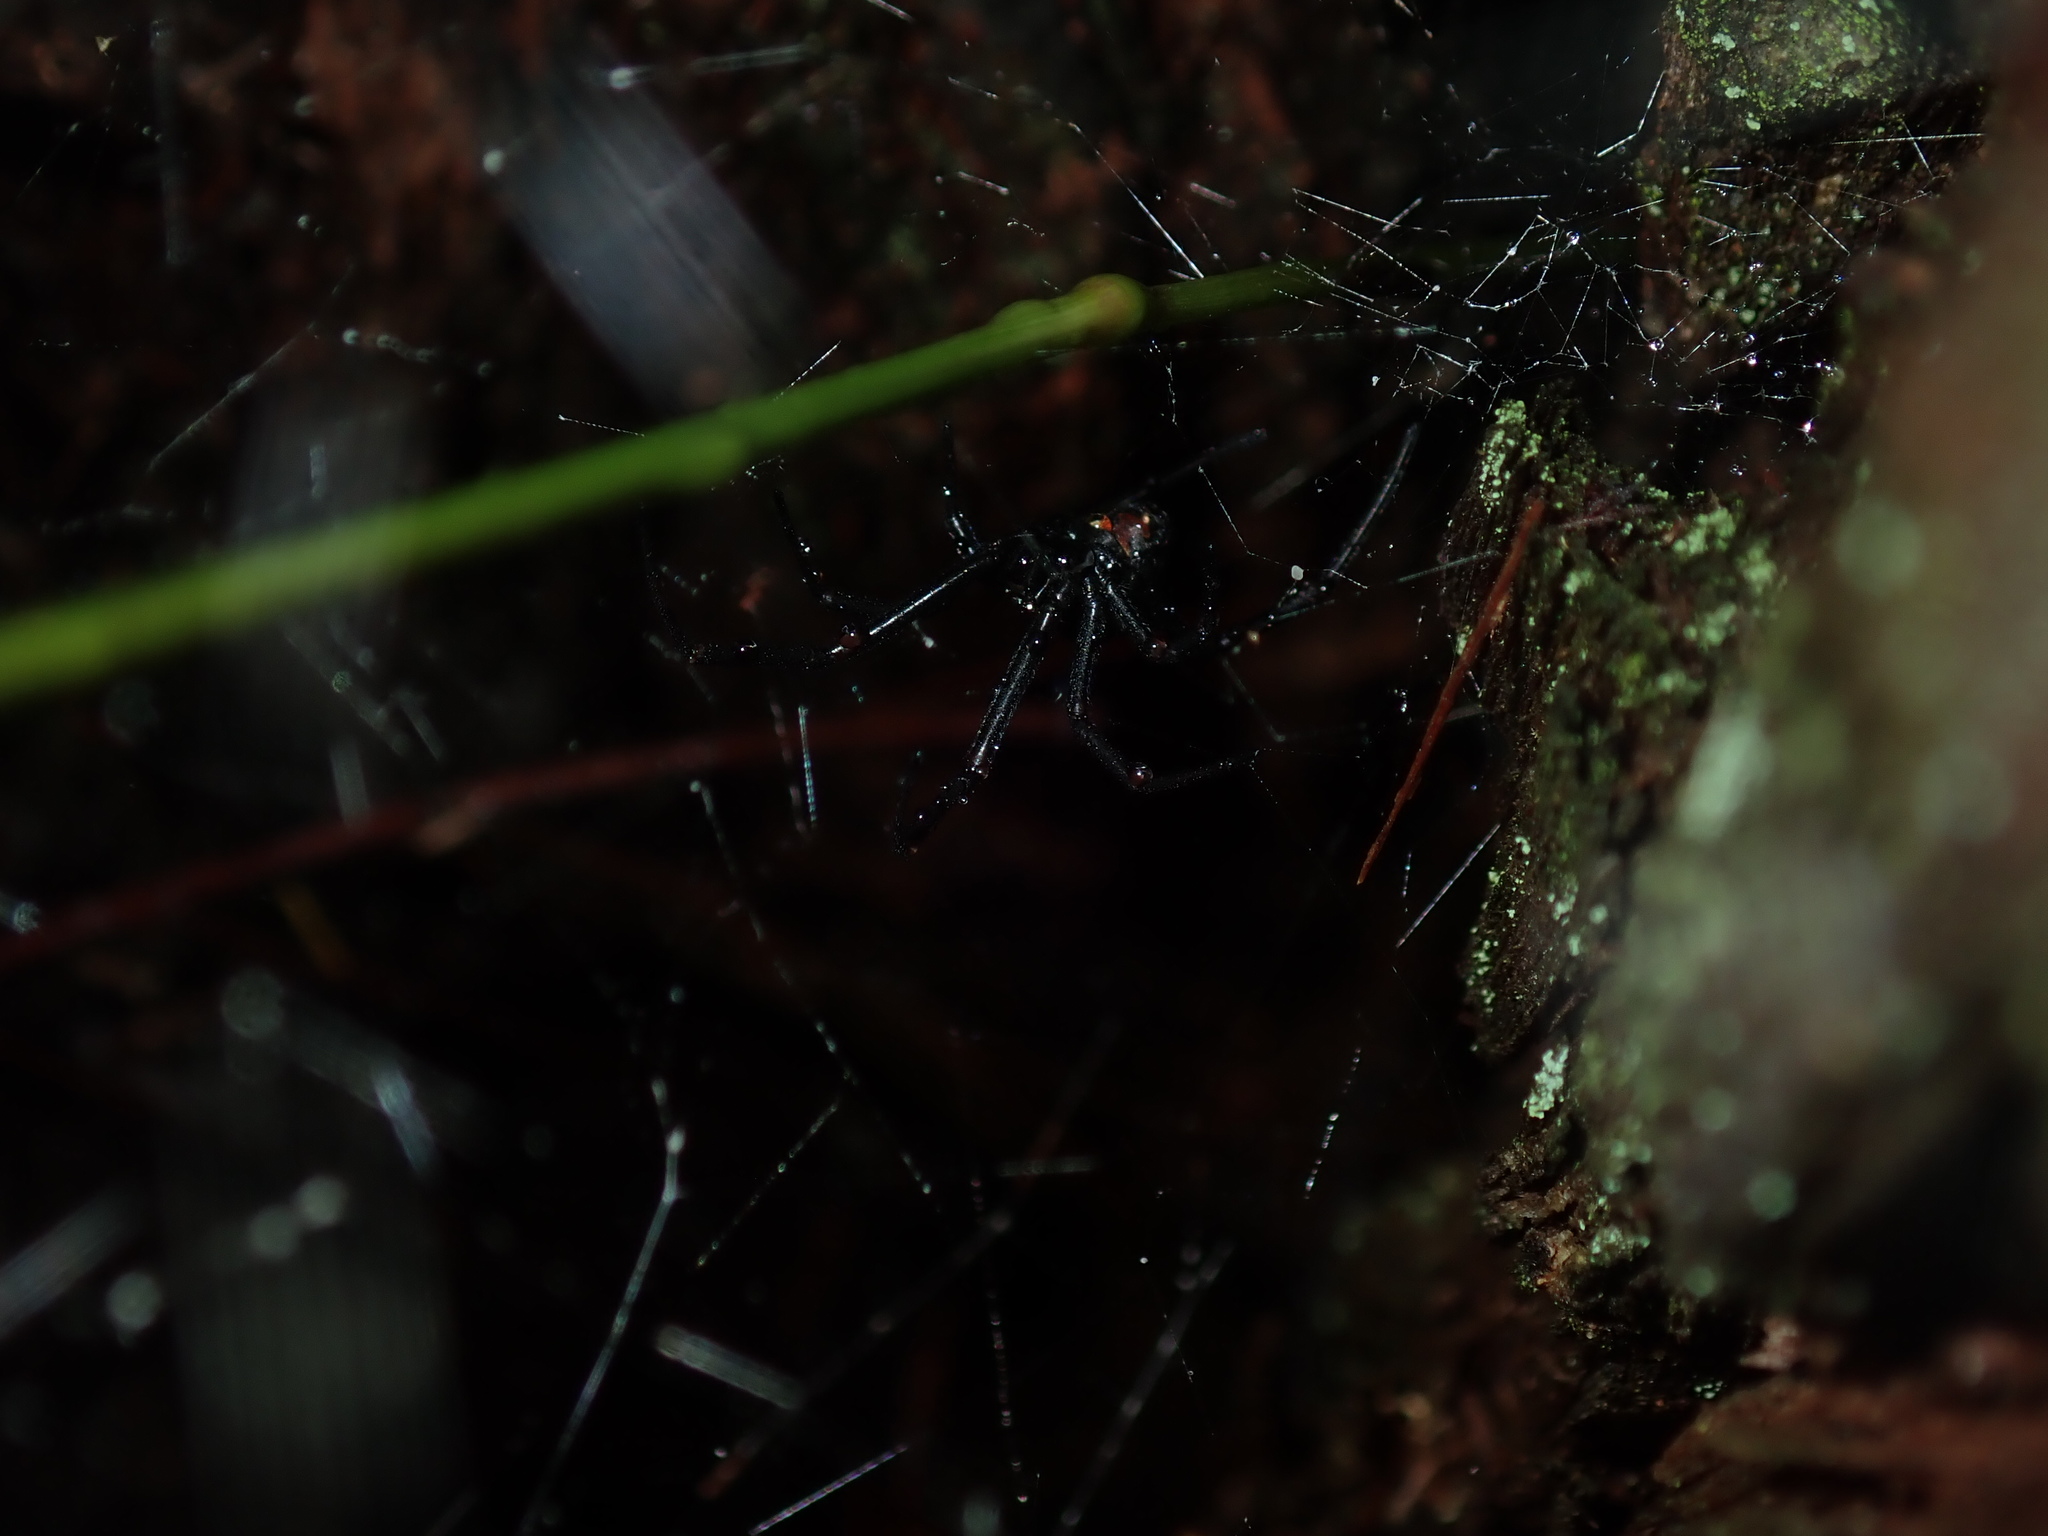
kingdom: Animalia
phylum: Arthropoda
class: Arachnida
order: Araneae
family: Theridiidae
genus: Latrodectus
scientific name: Latrodectus hasselti
